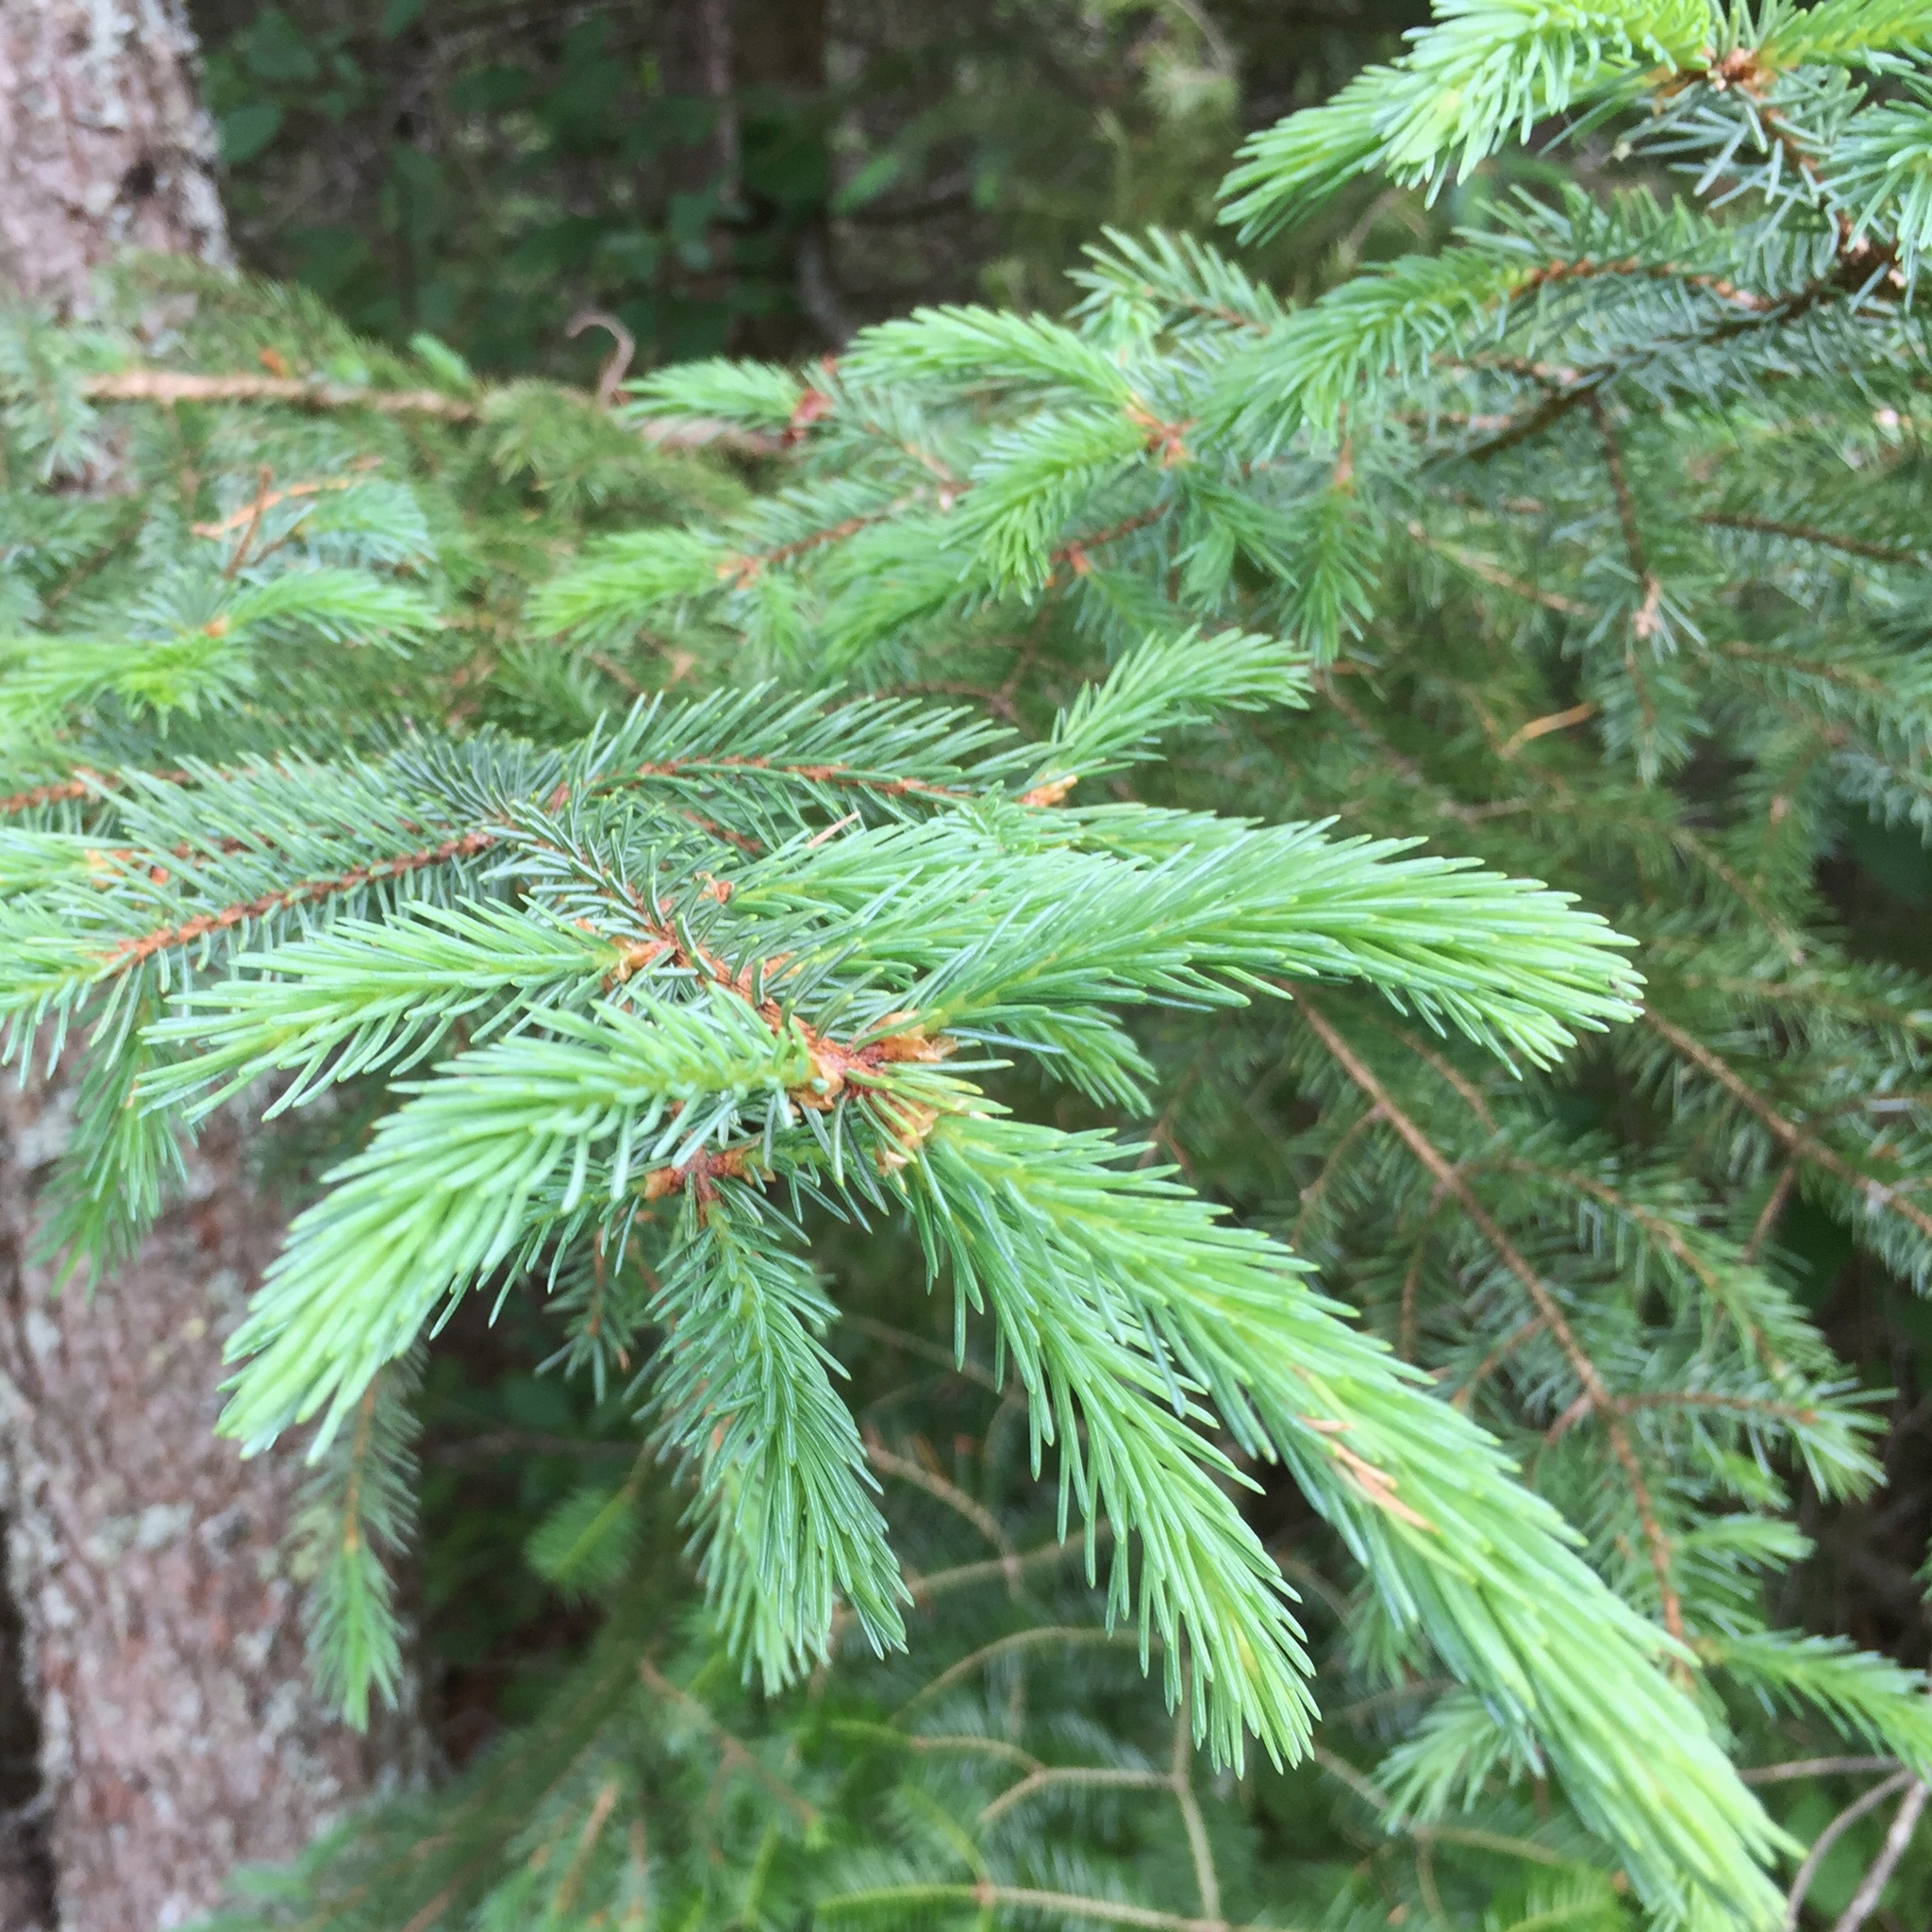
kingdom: Plantae
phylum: Tracheophyta
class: Pinopsida
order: Pinales
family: Pinaceae
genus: Picea
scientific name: Picea glauca
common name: White spruce
